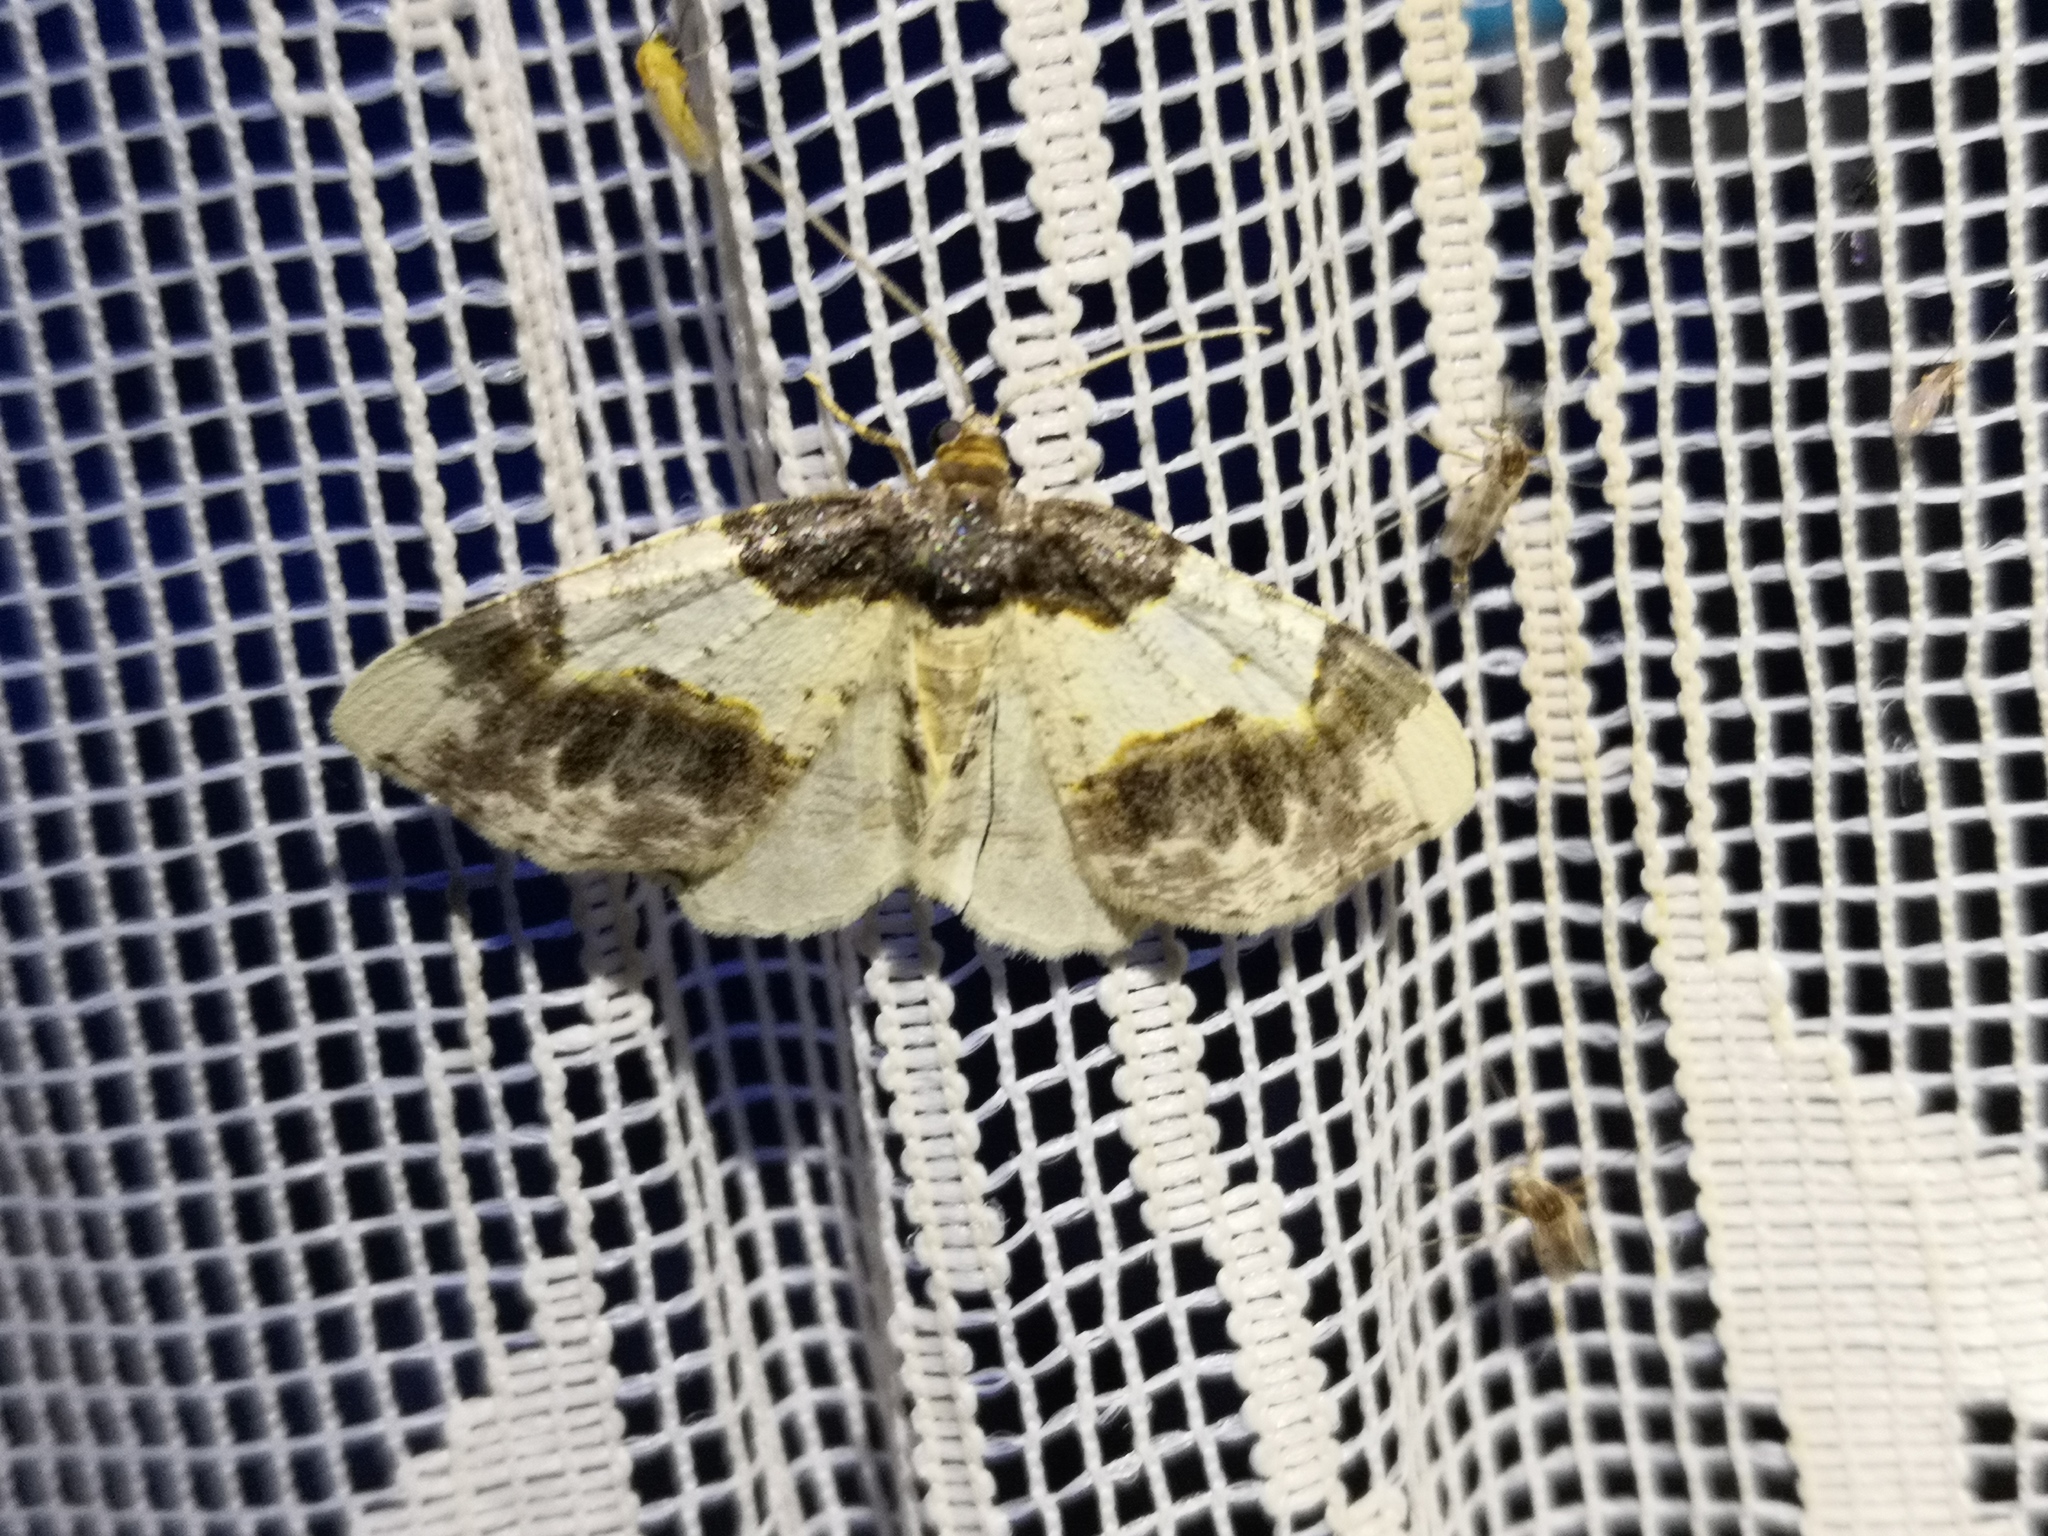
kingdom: Animalia
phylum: Arthropoda
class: Insecta
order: Lepidoptera
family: Geometridae
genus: Ligdia
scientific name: Ligdia adustata
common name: Scorched carpet
